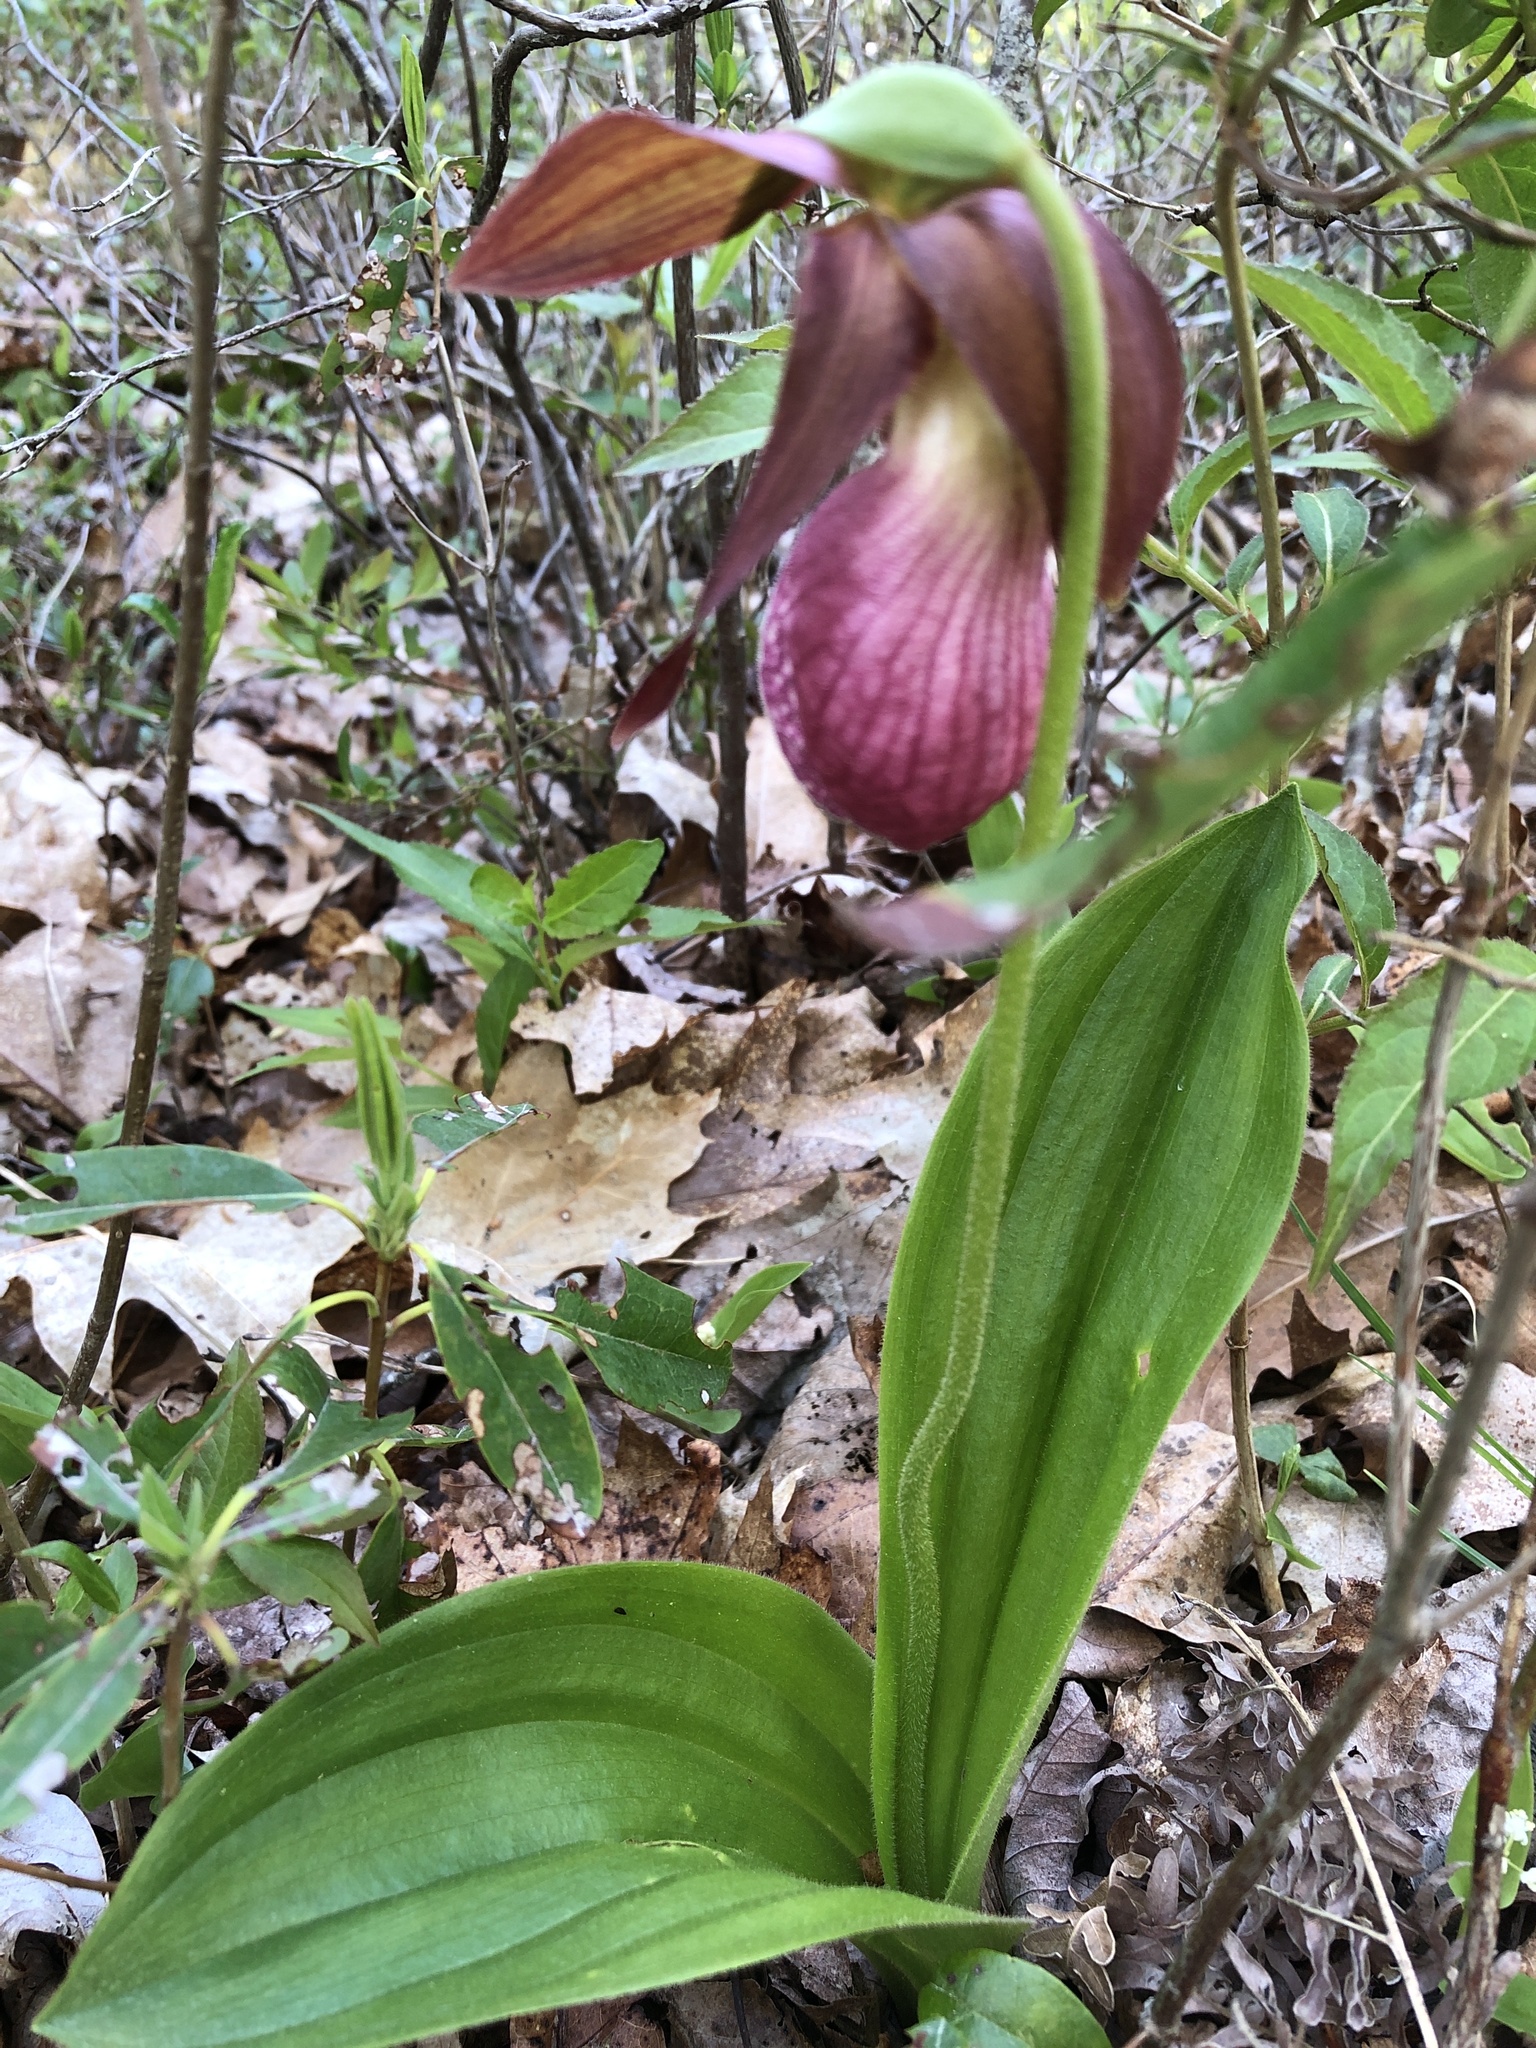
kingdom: Plantae
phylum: Tracheophyta
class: Liliopsida
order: Asparagales
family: Orchidaceae
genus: Cypripedium
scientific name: Cypripedium acaule
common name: Pink lady's-slipper
